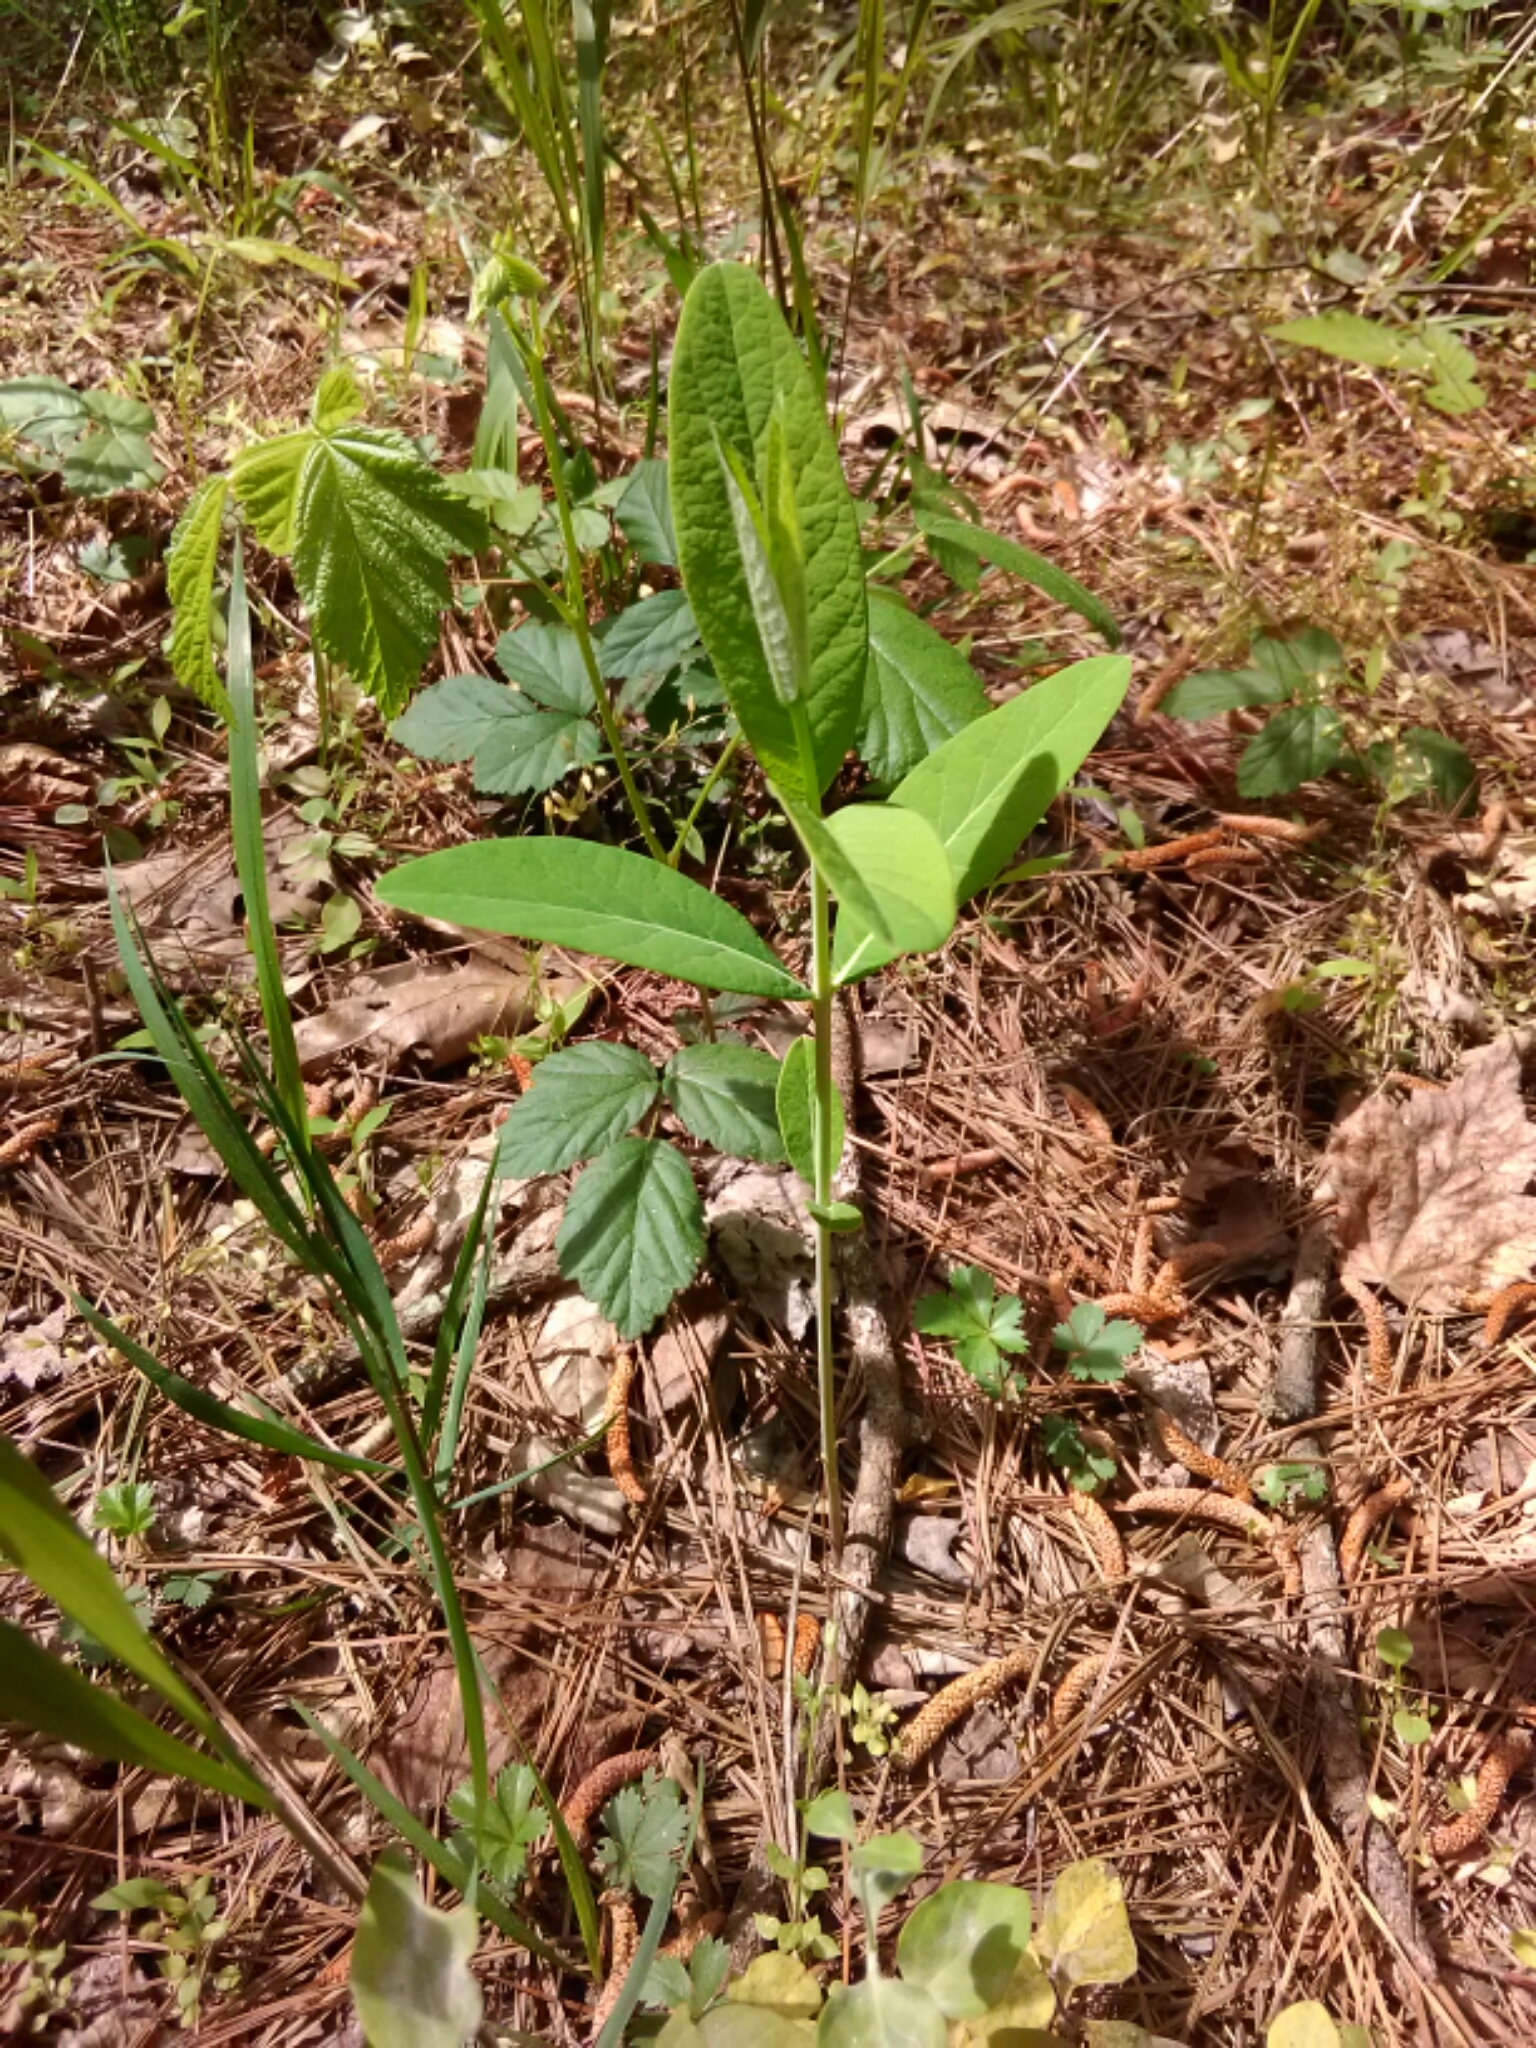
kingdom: Plantae
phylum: Tracheophyta
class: Magnoliopsida
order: Gentianales
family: Apocynaceae
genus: Apocynum
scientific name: Apocynum cannabinum
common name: Hemp dogbane
